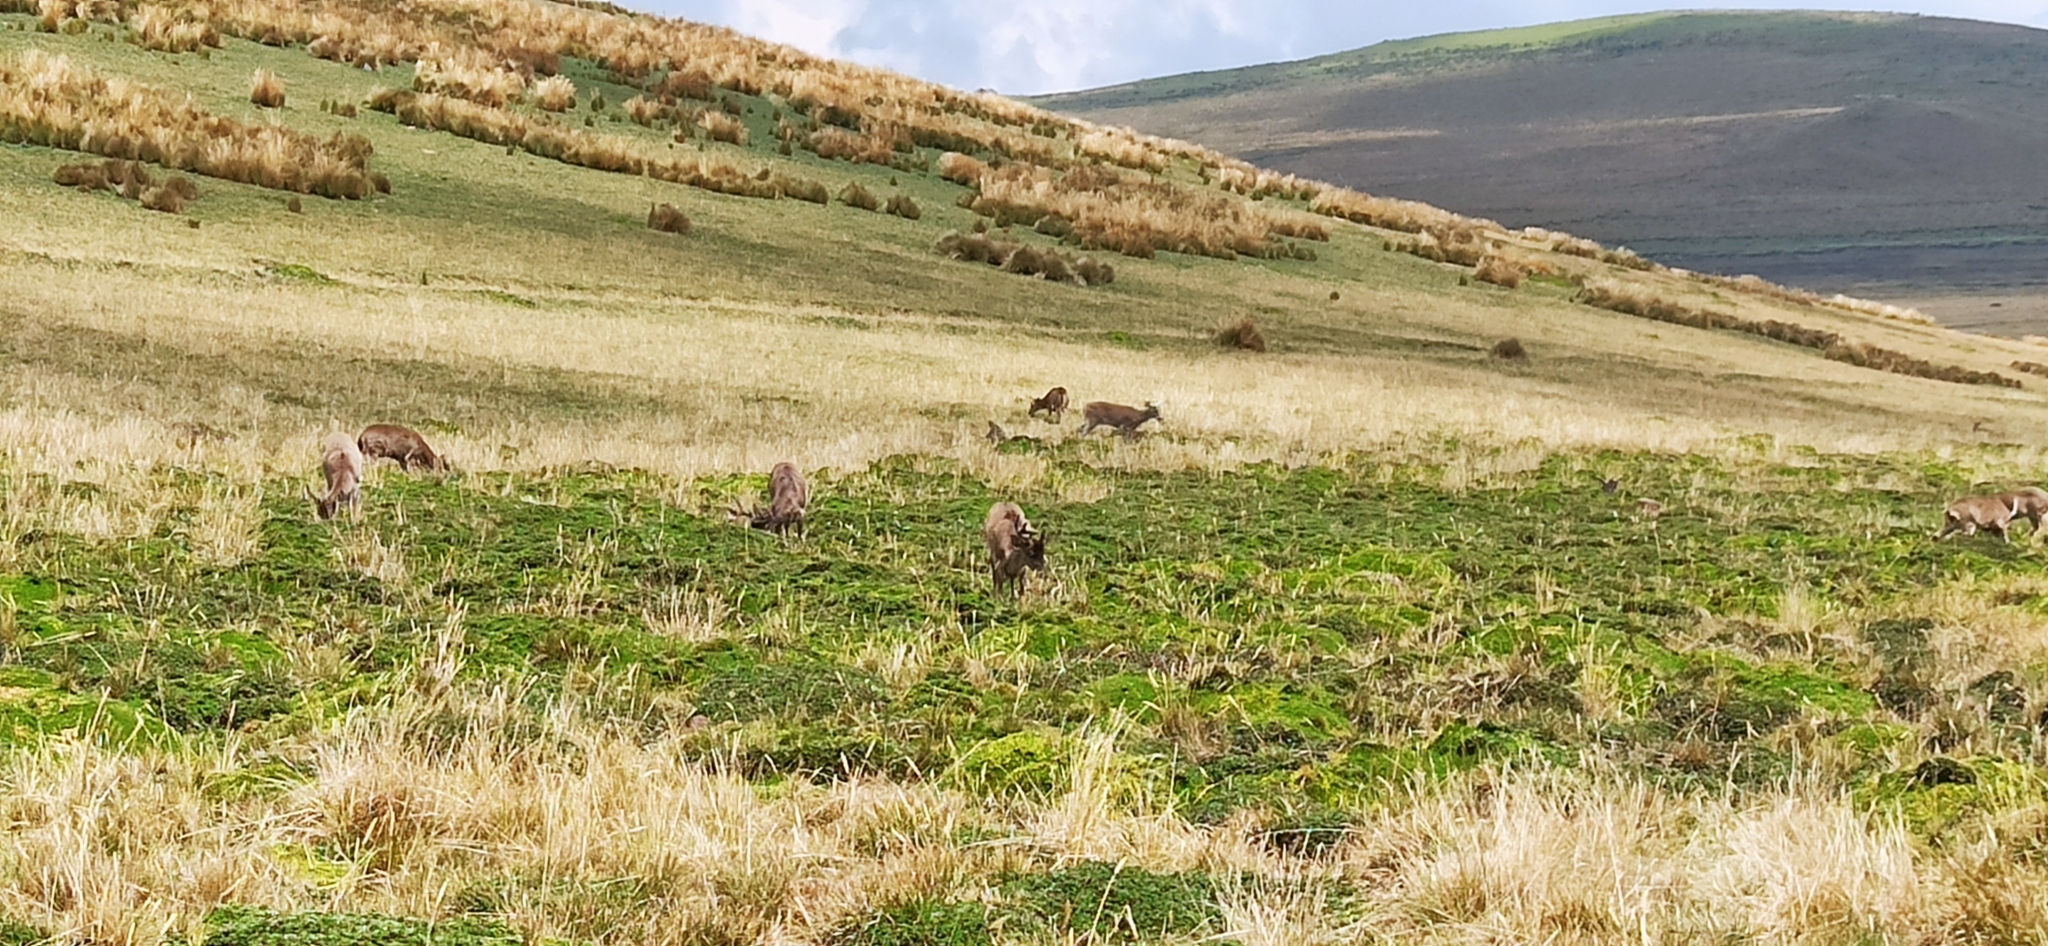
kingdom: Animalia
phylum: Chordata
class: Mammalia
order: Artiodactyla
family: Cervidae
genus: Odocoileus
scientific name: Odocoileus virginianus
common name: White-tailed deer
